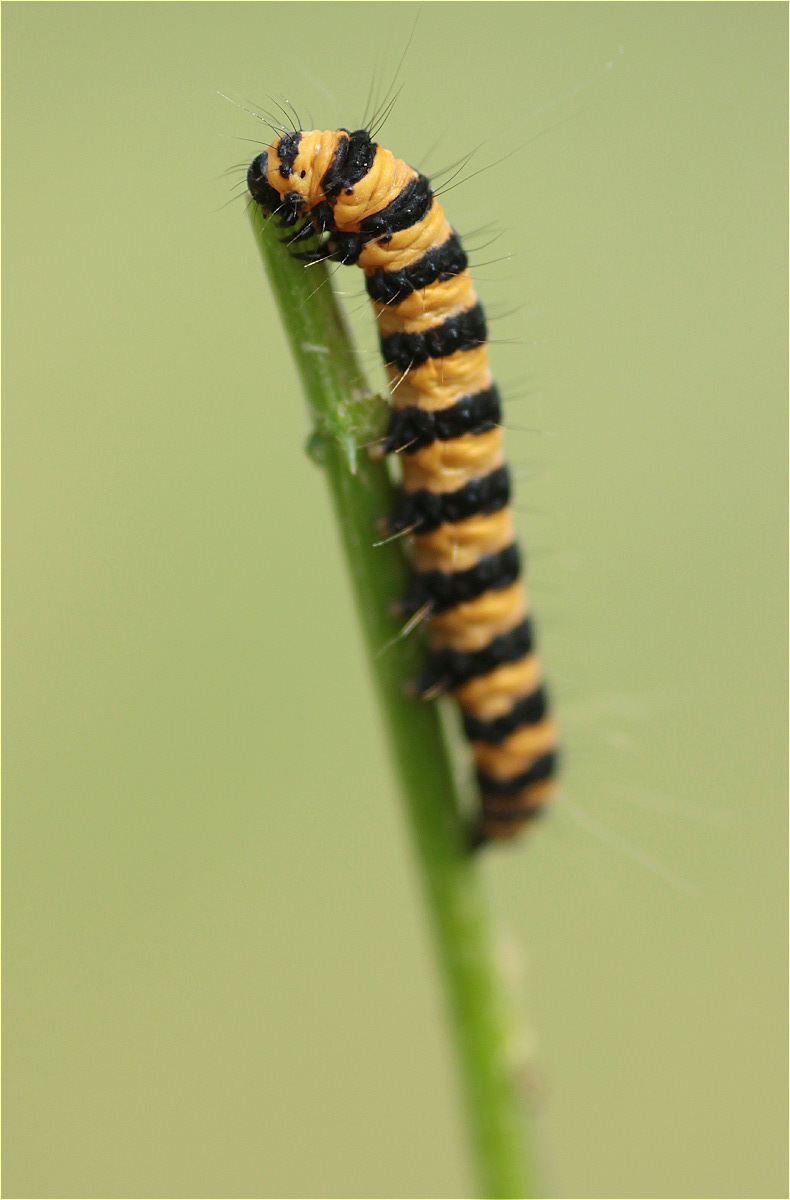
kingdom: Animalia
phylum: Arthropoda
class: Insecta
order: Lepidoptera
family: Erebidae
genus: Tyria
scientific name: Tyria jacobaeae
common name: Cinnabar
